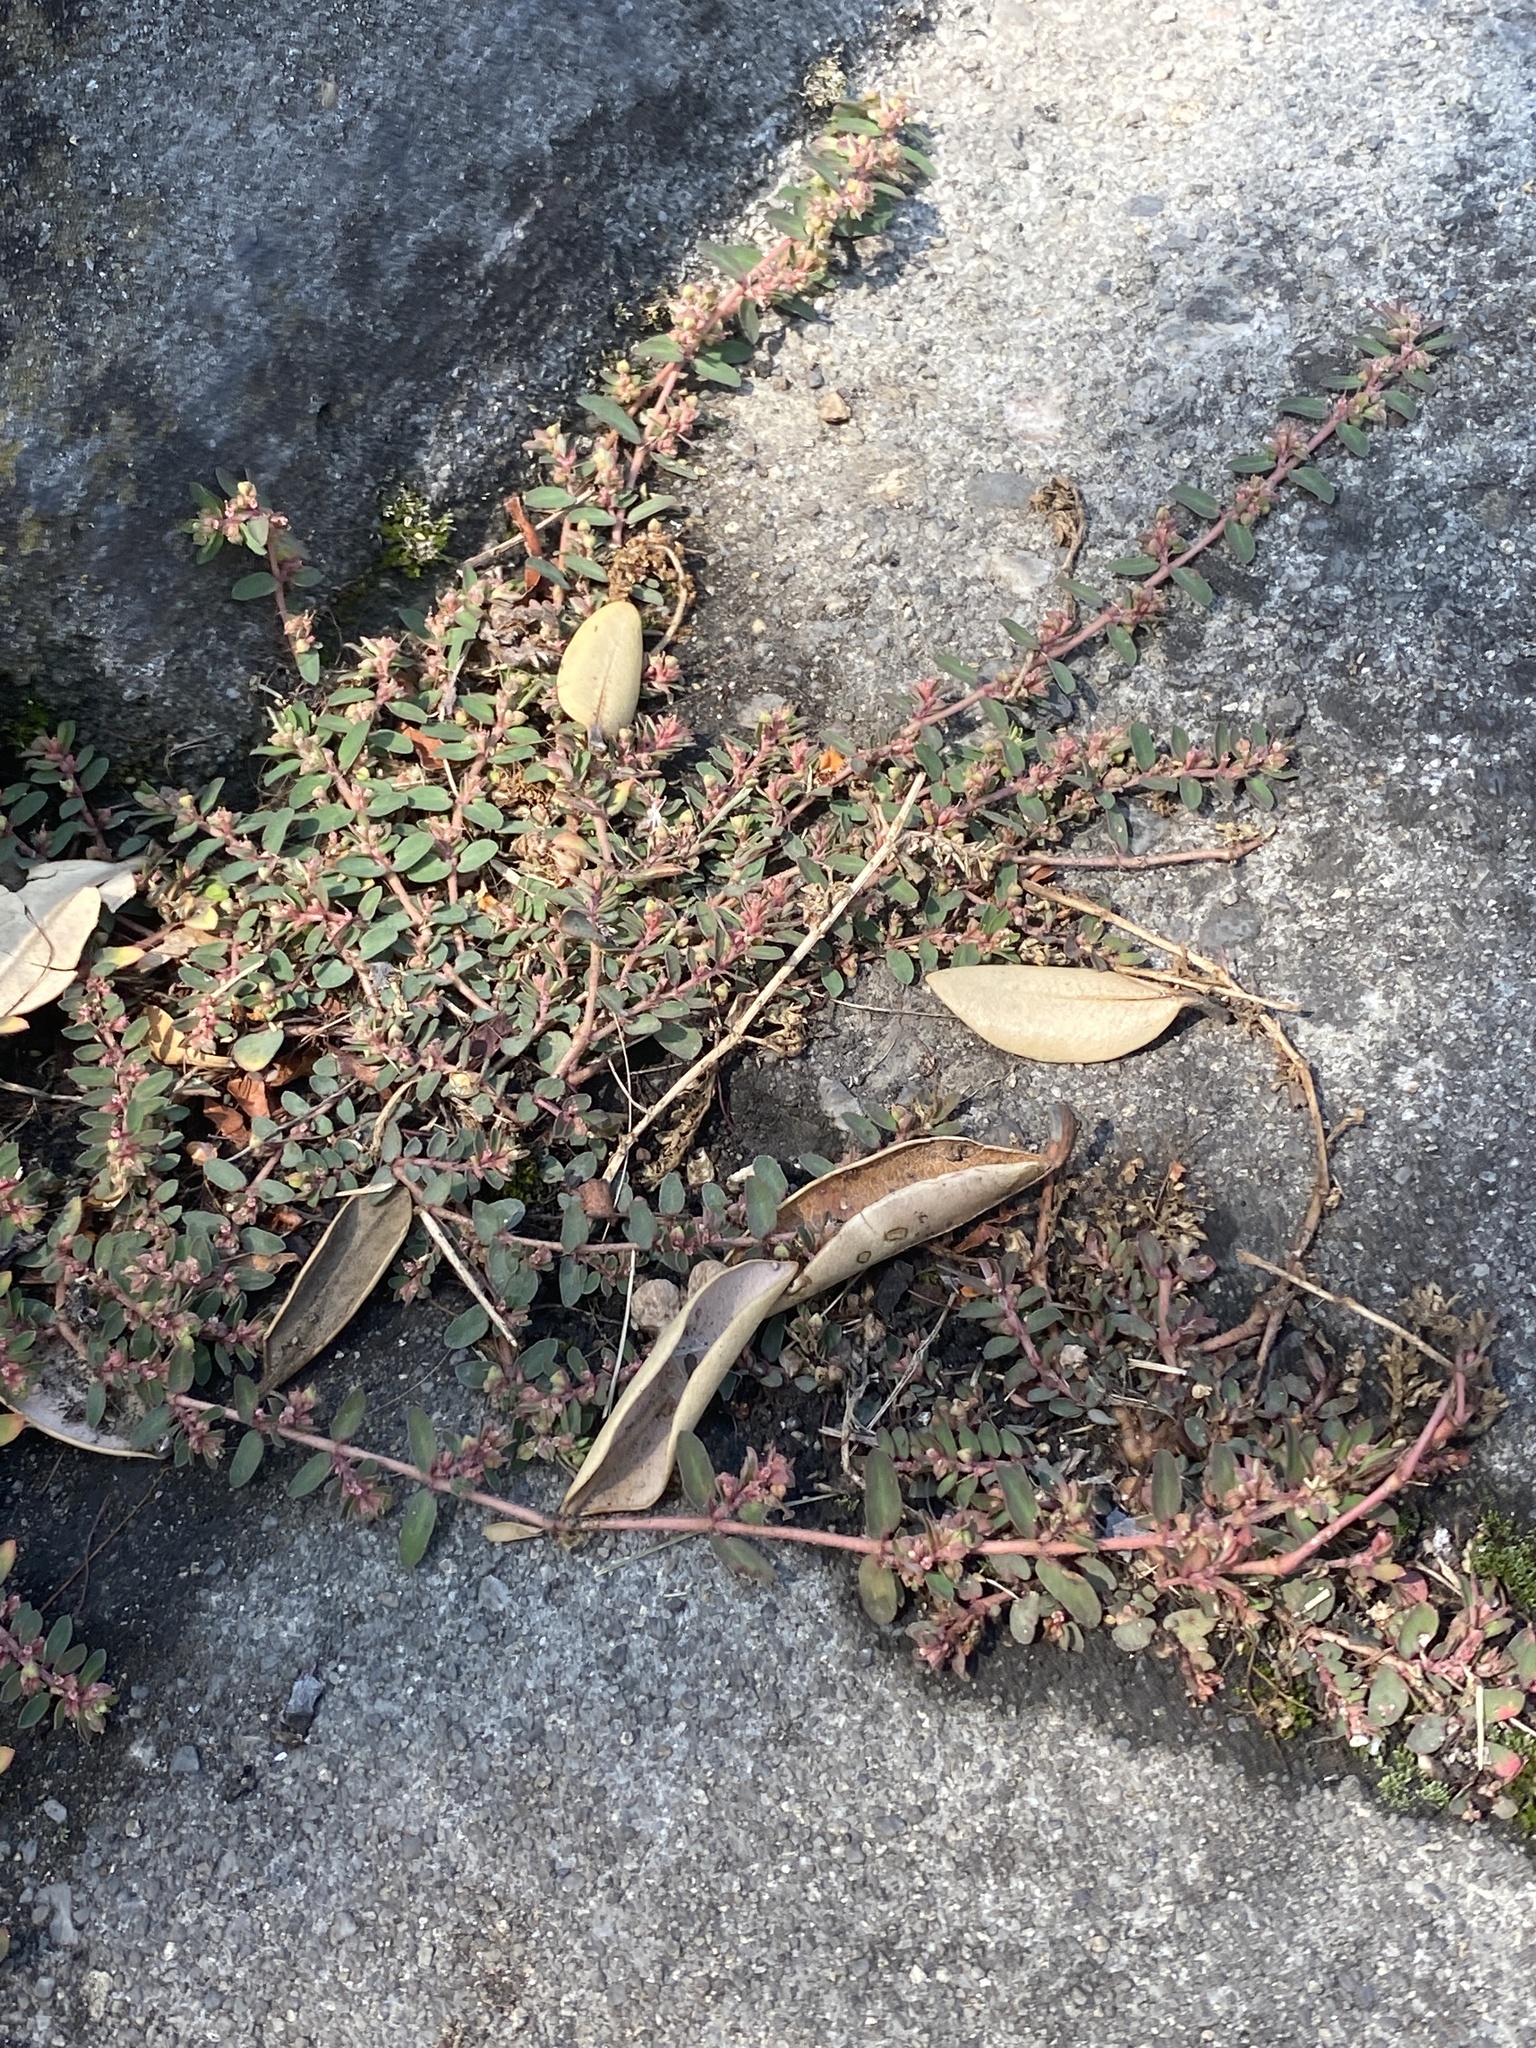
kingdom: Plantae
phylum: Tracheophyta
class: Magnoliopsida
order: Malpighiales
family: Euphorbiaceae
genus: Euphorbia
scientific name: Euphorbia maculata
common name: Spotted spurge
